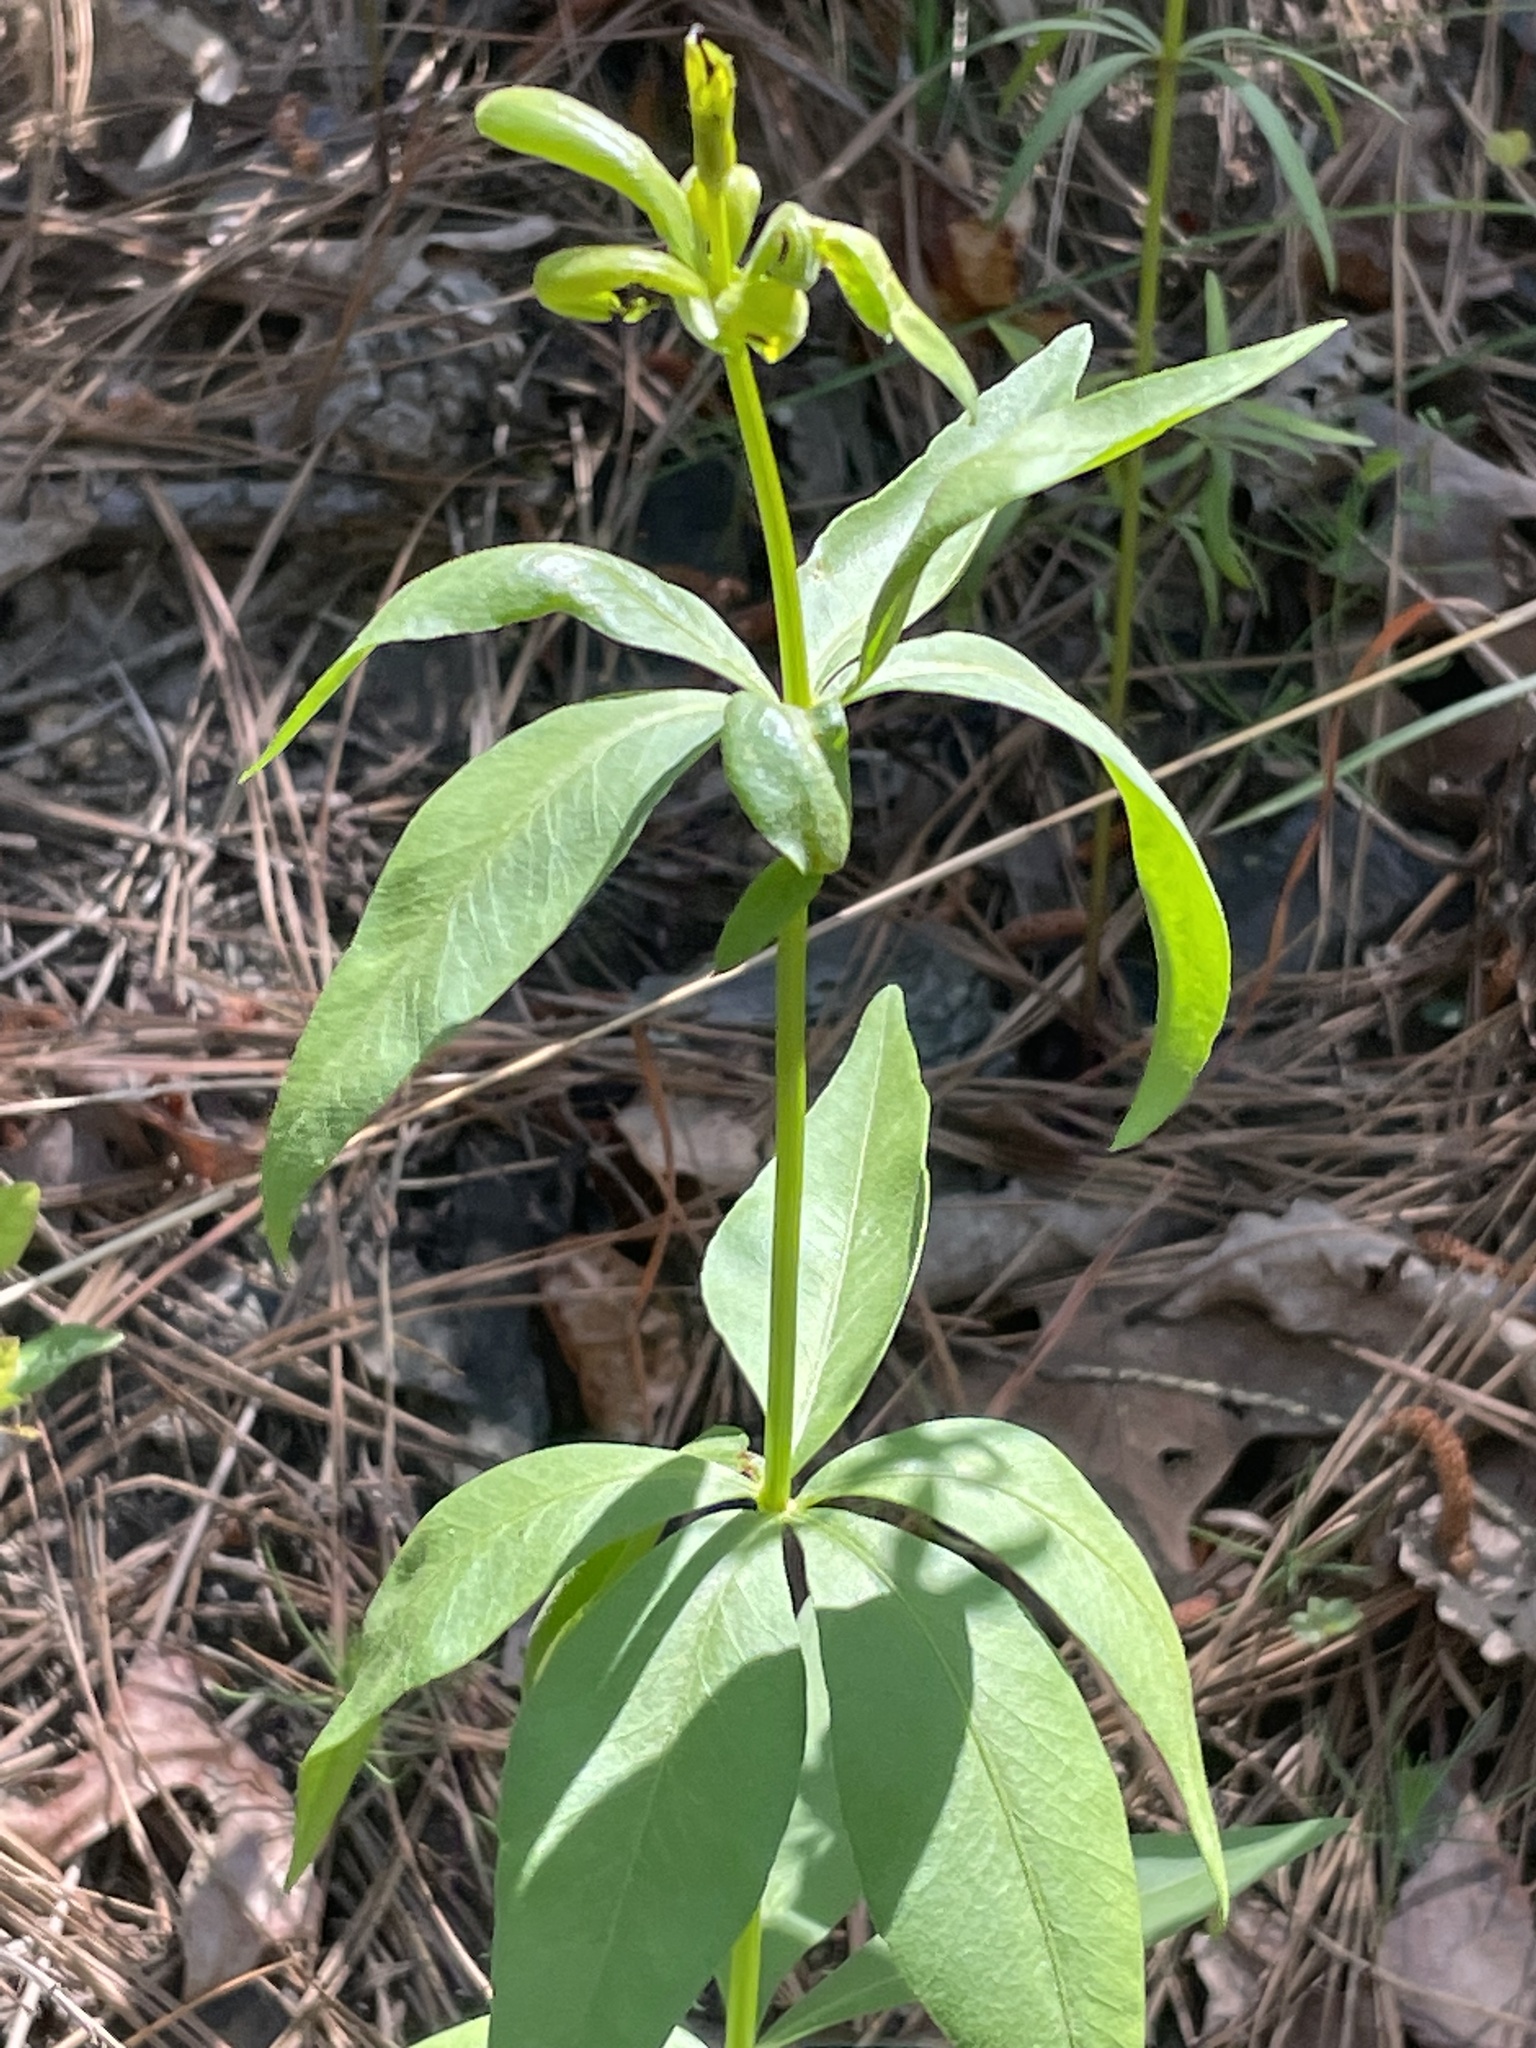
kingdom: Plantae
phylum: Tracheophyta
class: Magnoliopsida
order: Asterales
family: Asteraceae
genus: Coreopsis
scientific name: Coreopsis major
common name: Forest tickseed
